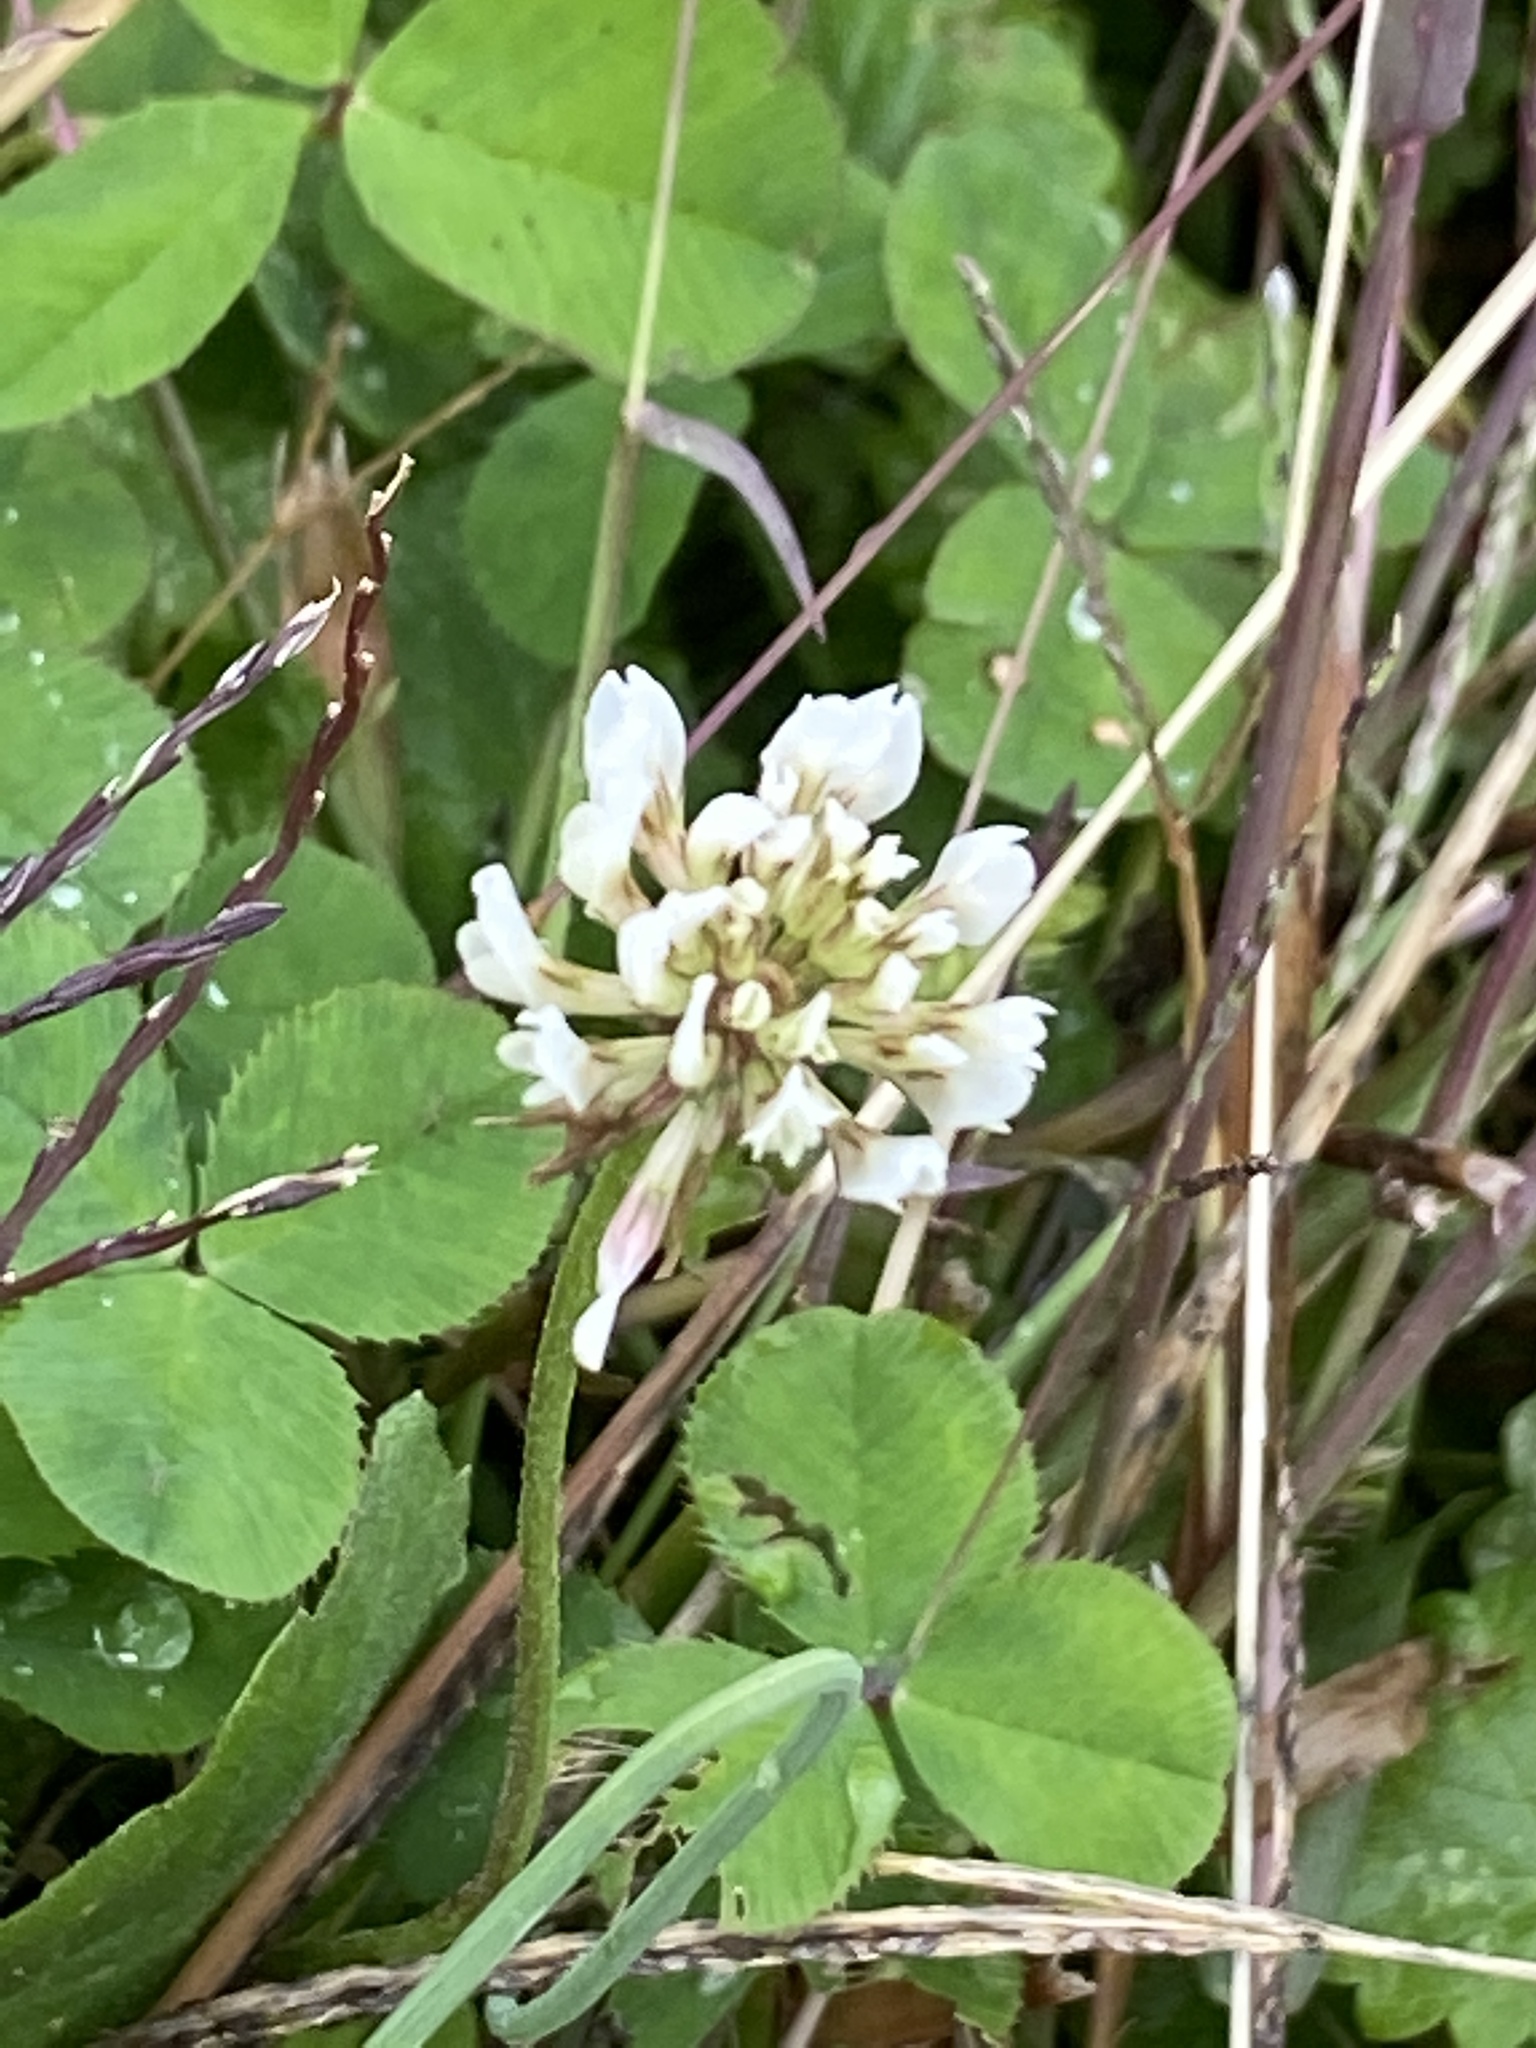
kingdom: Plantae
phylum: Tracheophyta
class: Magnoliopsida
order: Fabales
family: Fabaceae
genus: Trifolium
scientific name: Trifolium repens
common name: White clover
